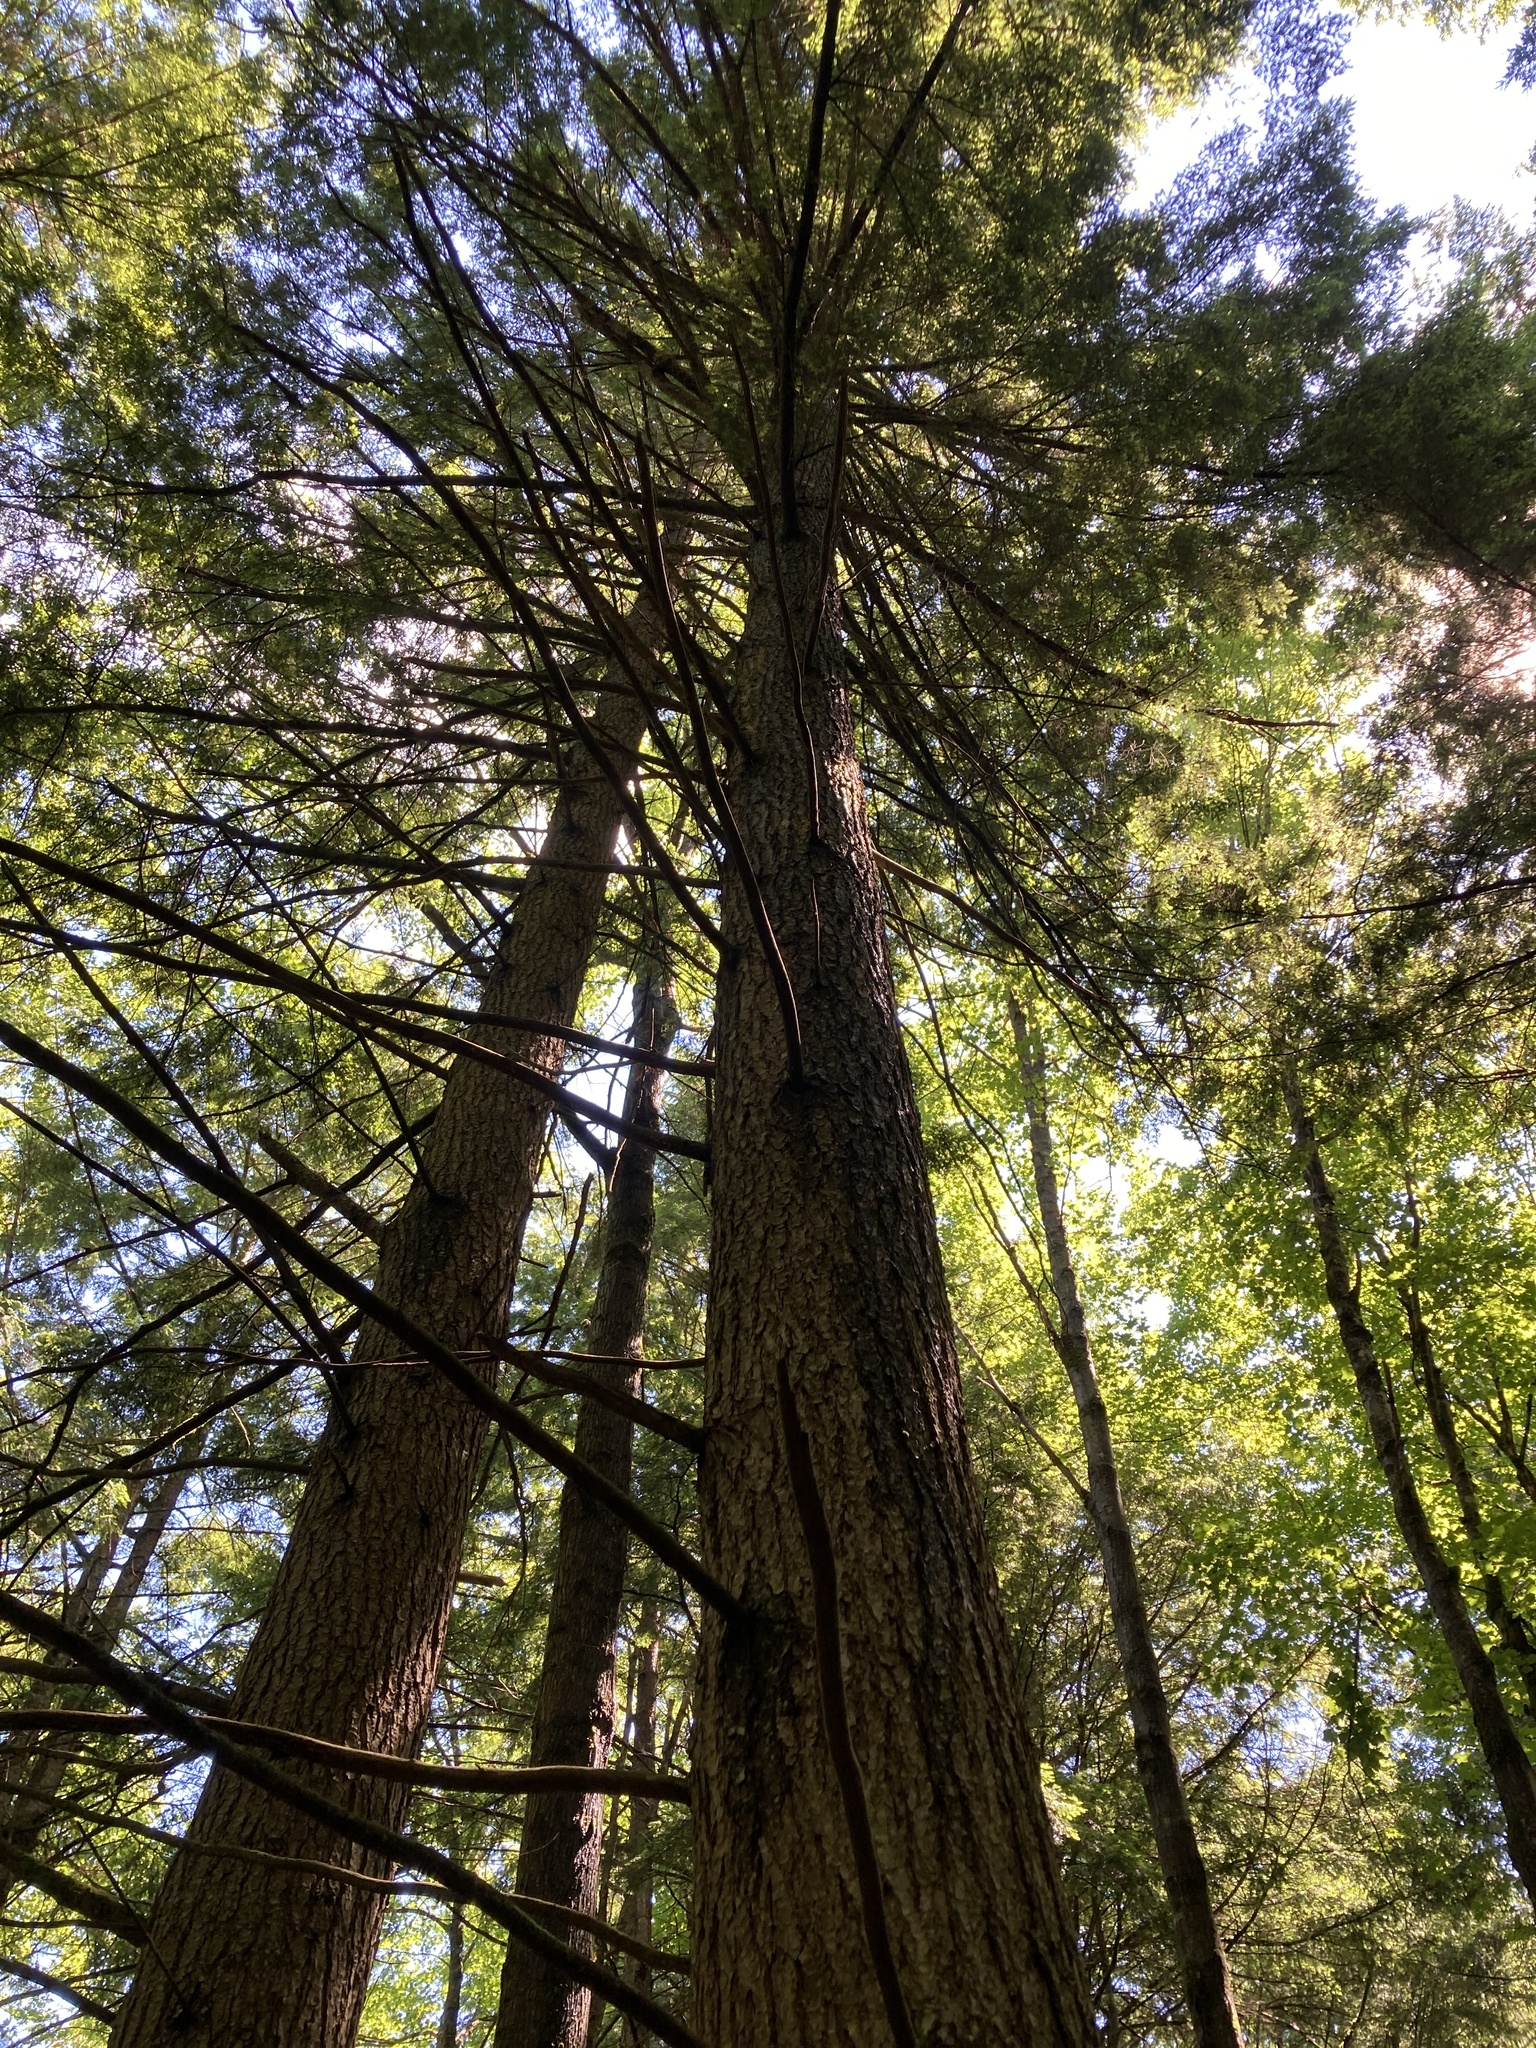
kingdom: Plantae
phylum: Tracheophyta
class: Pinopsida
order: Pinales
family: Pinaceae
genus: Tsuga
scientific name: Tsuga canadensis
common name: Eastern hemlock
